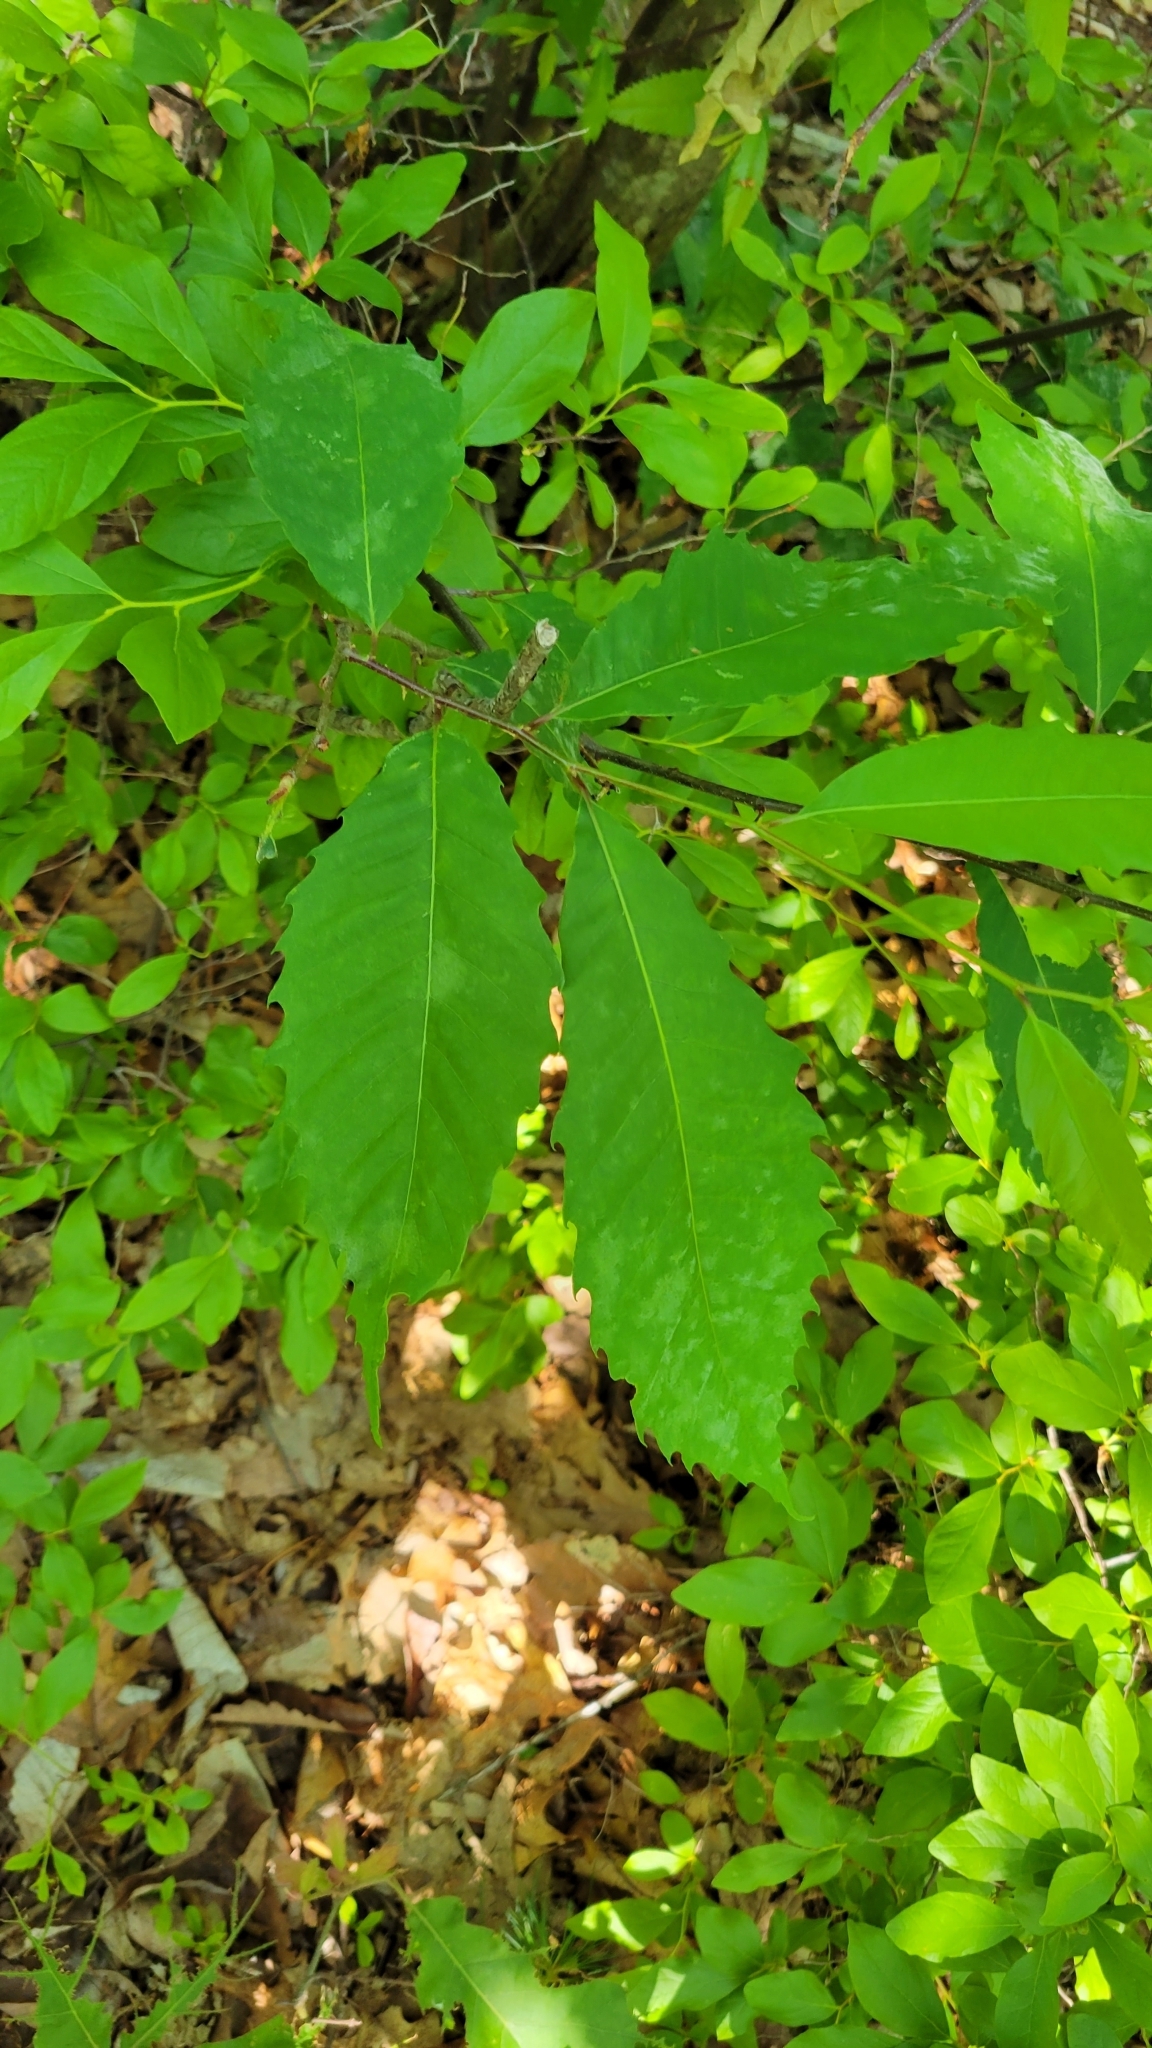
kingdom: Plantae
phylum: Tracheophyta
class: Magnoliopsida
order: Fagales
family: Fagaceae
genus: Castanea
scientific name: Castanea dentata
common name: American chestnut
